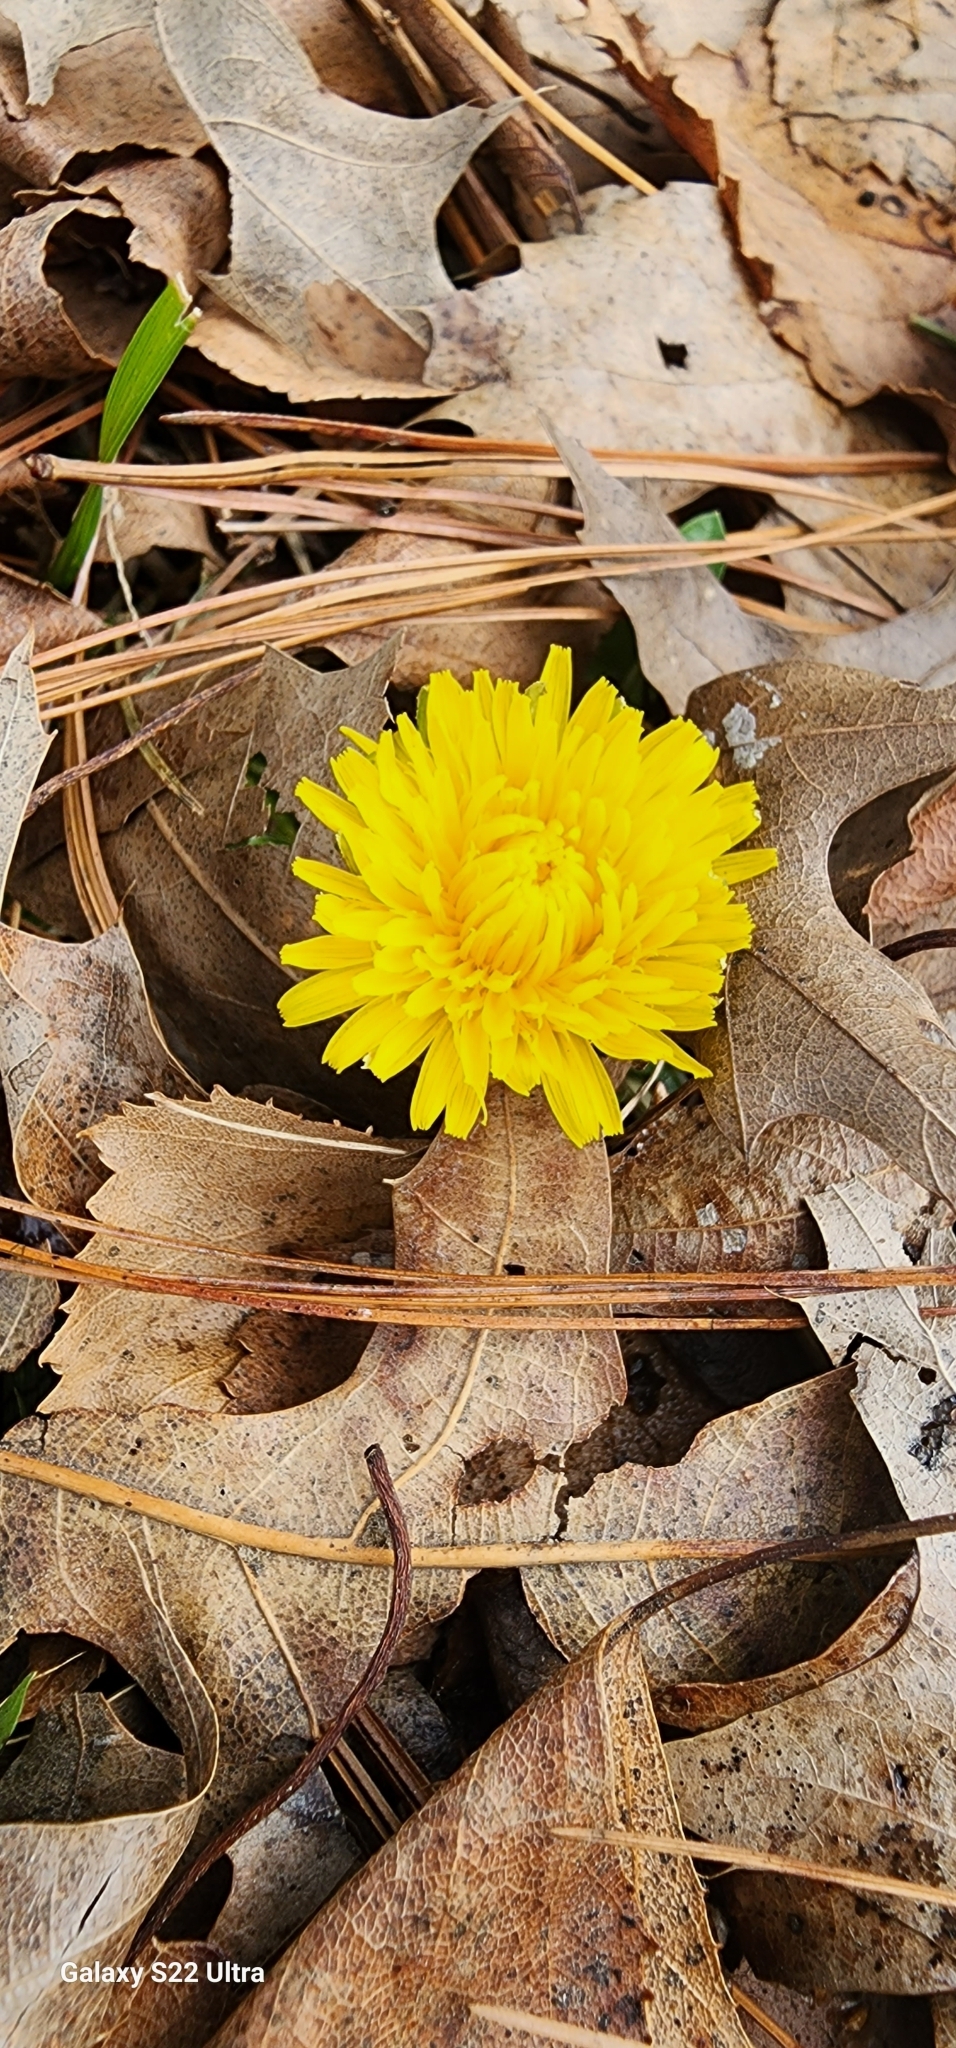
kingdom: Plantae
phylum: Tracheophyta
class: Magnoliopsida
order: Asterales
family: Asteraceae
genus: Taraxacum
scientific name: Taraxacum officinale
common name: Common dandelion
